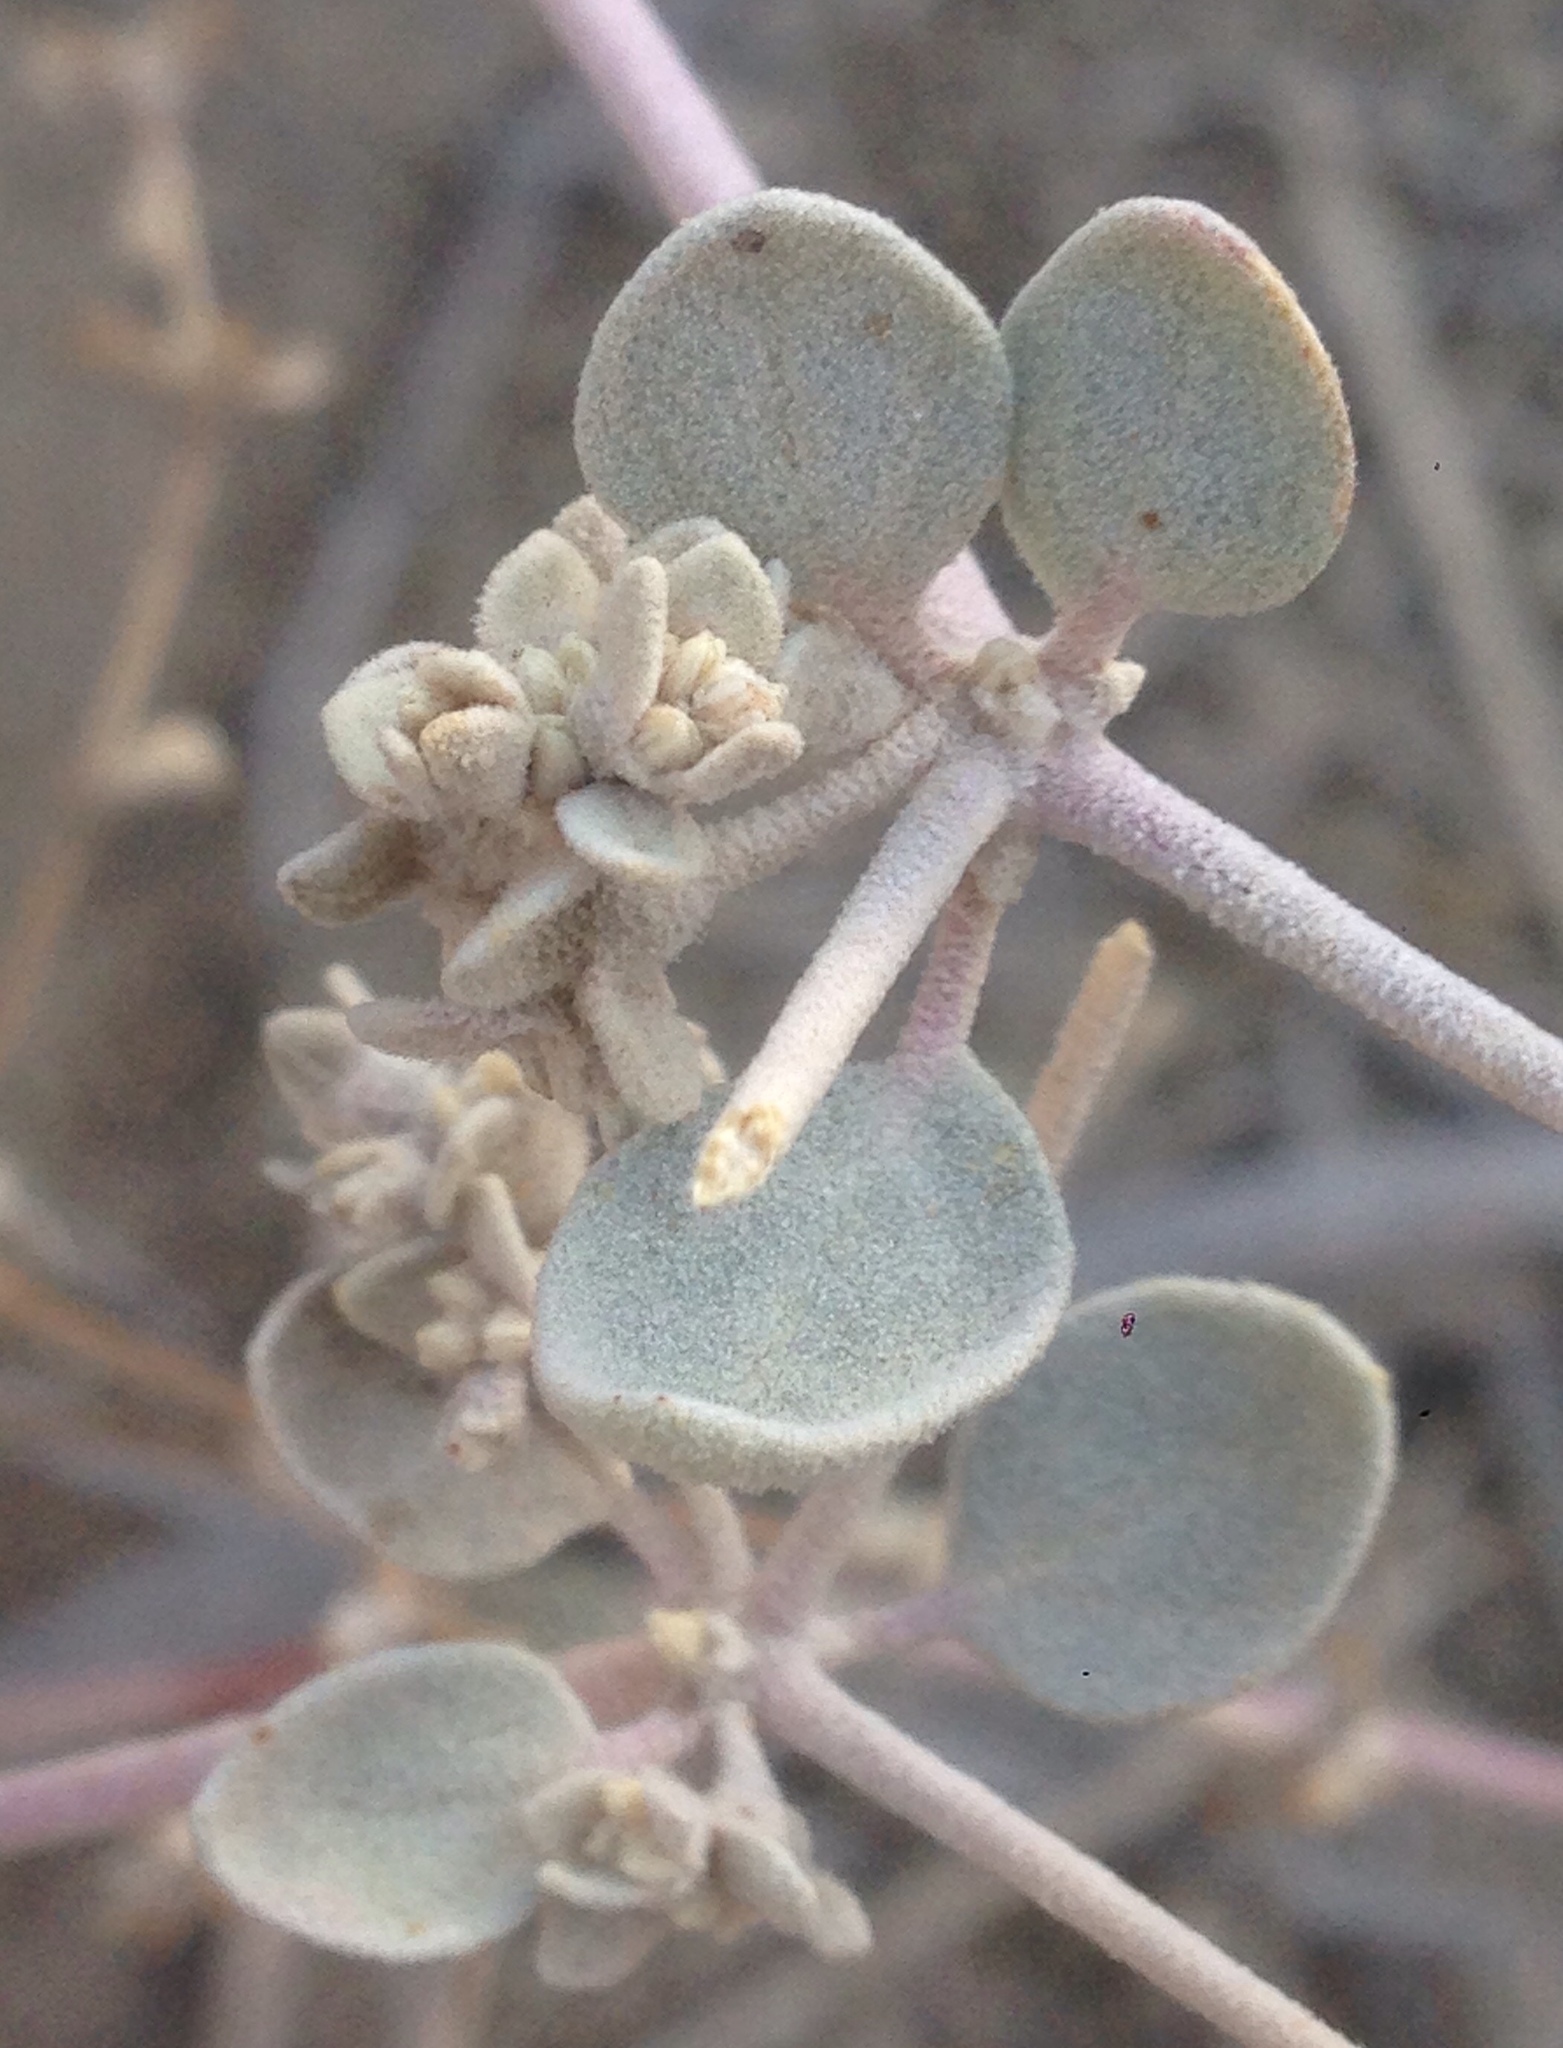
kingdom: Plantae
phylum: Tracheophyta
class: Magnoliopsida
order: Caryophyllales
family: Amaranthaceae
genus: Tidestromia
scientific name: Tidestromia suffruticosa
